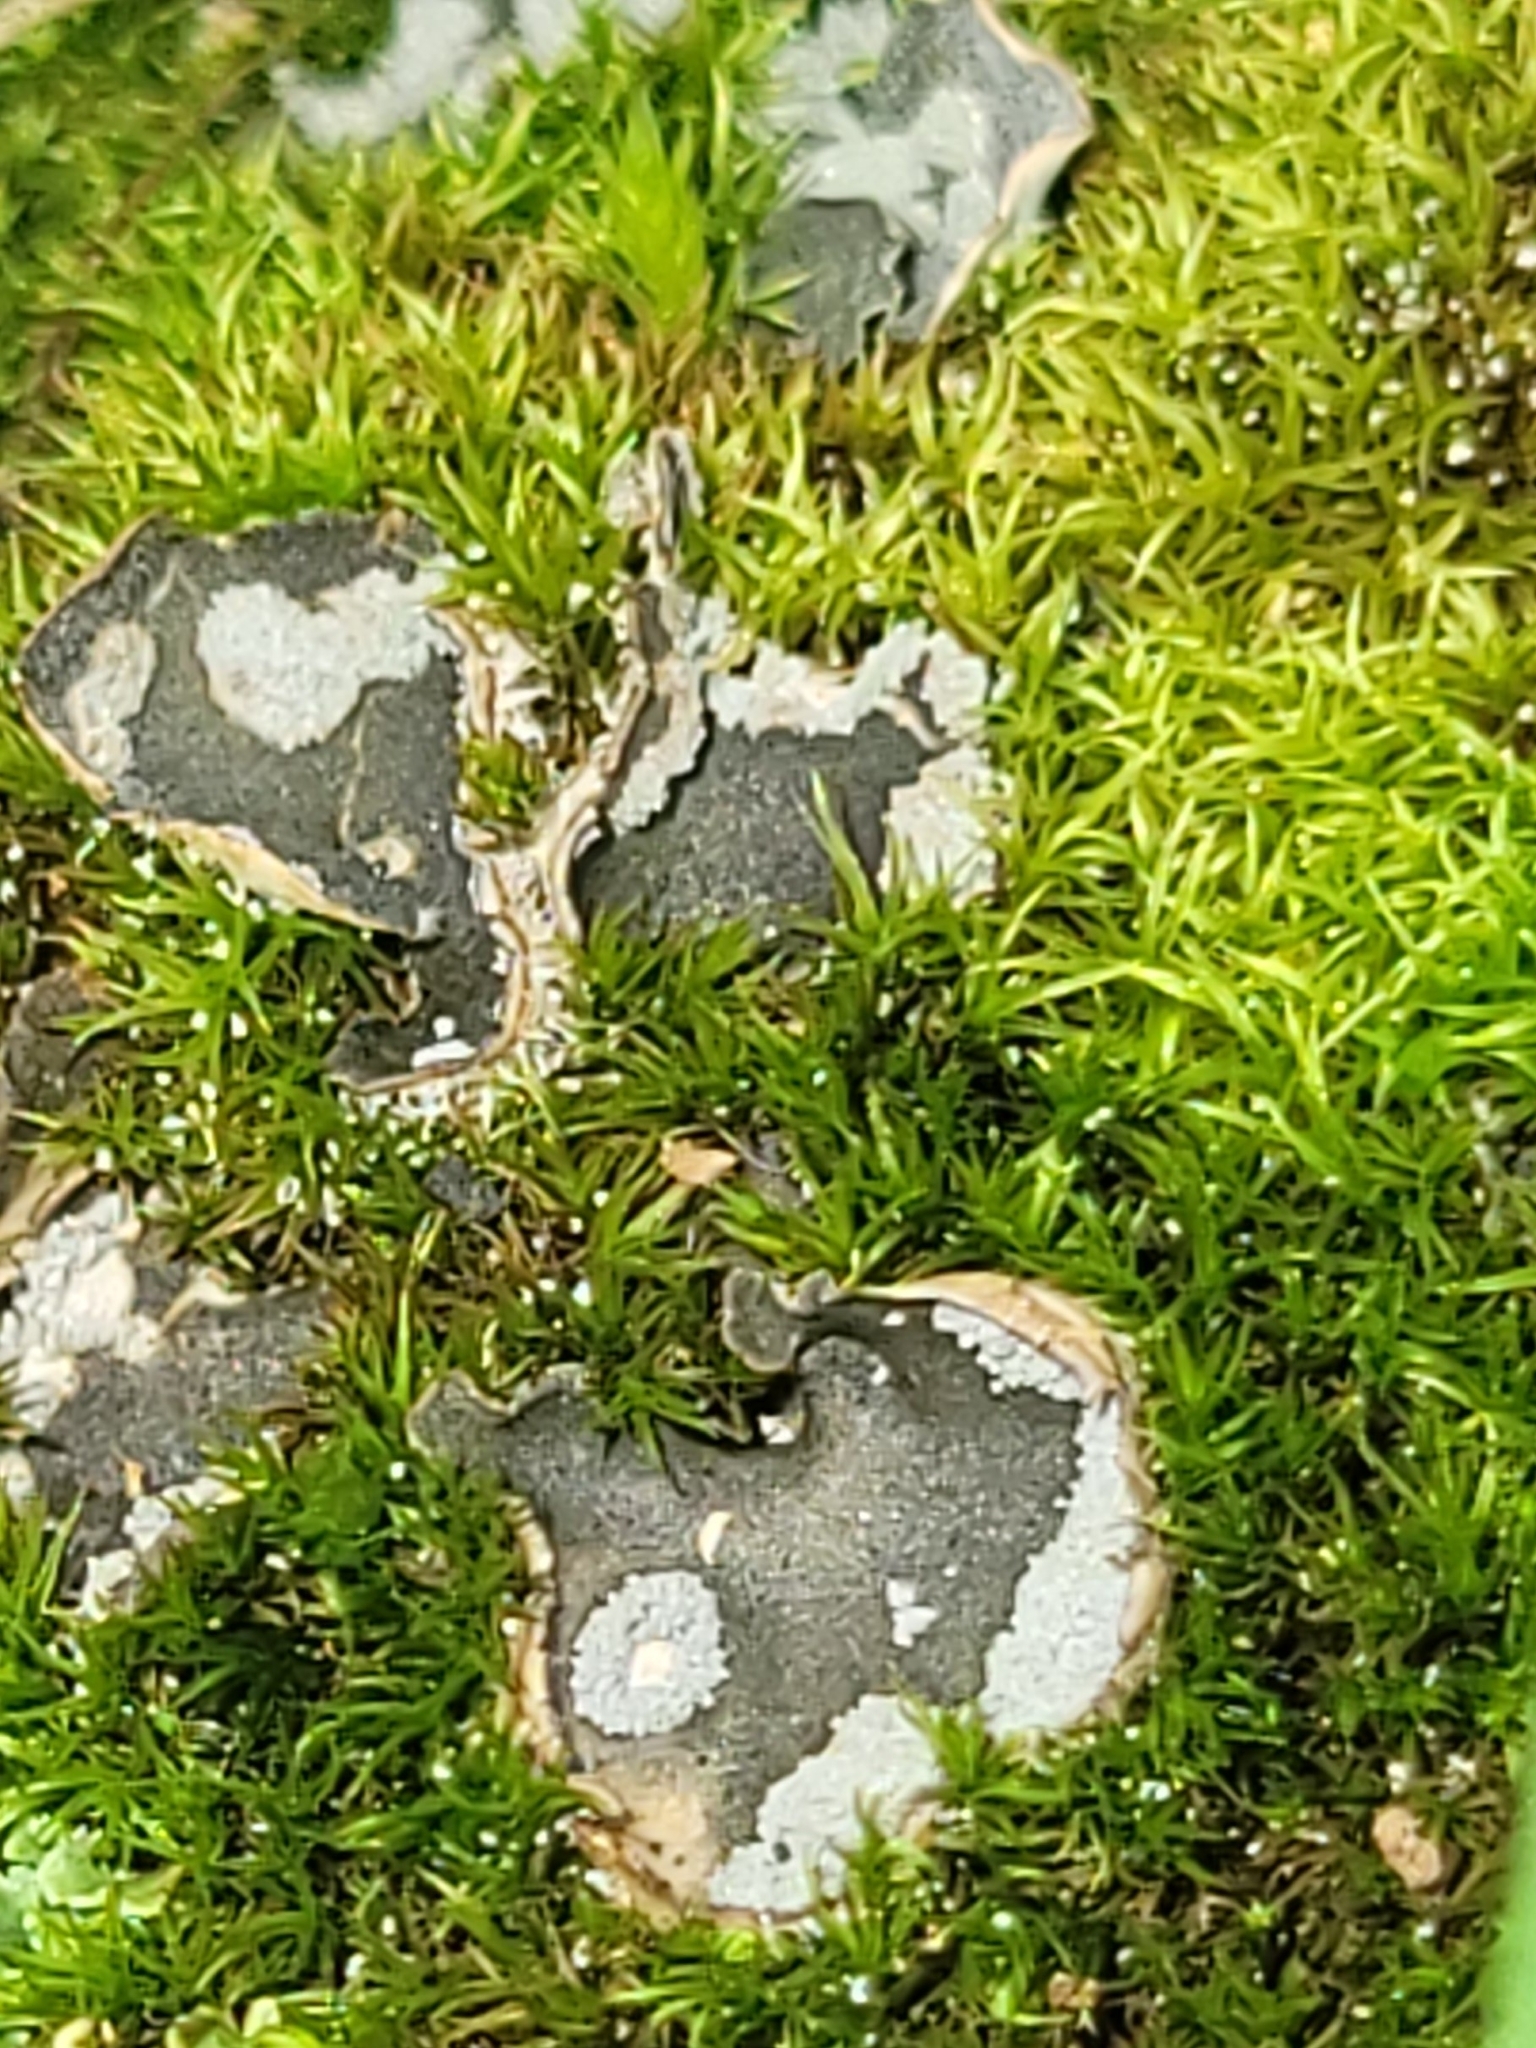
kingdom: Fungi
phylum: Ascomycota
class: Lecanoromycetes
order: Peltigerales
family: Peltigeraceae
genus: Peltigera
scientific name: Peltigera extenuata
